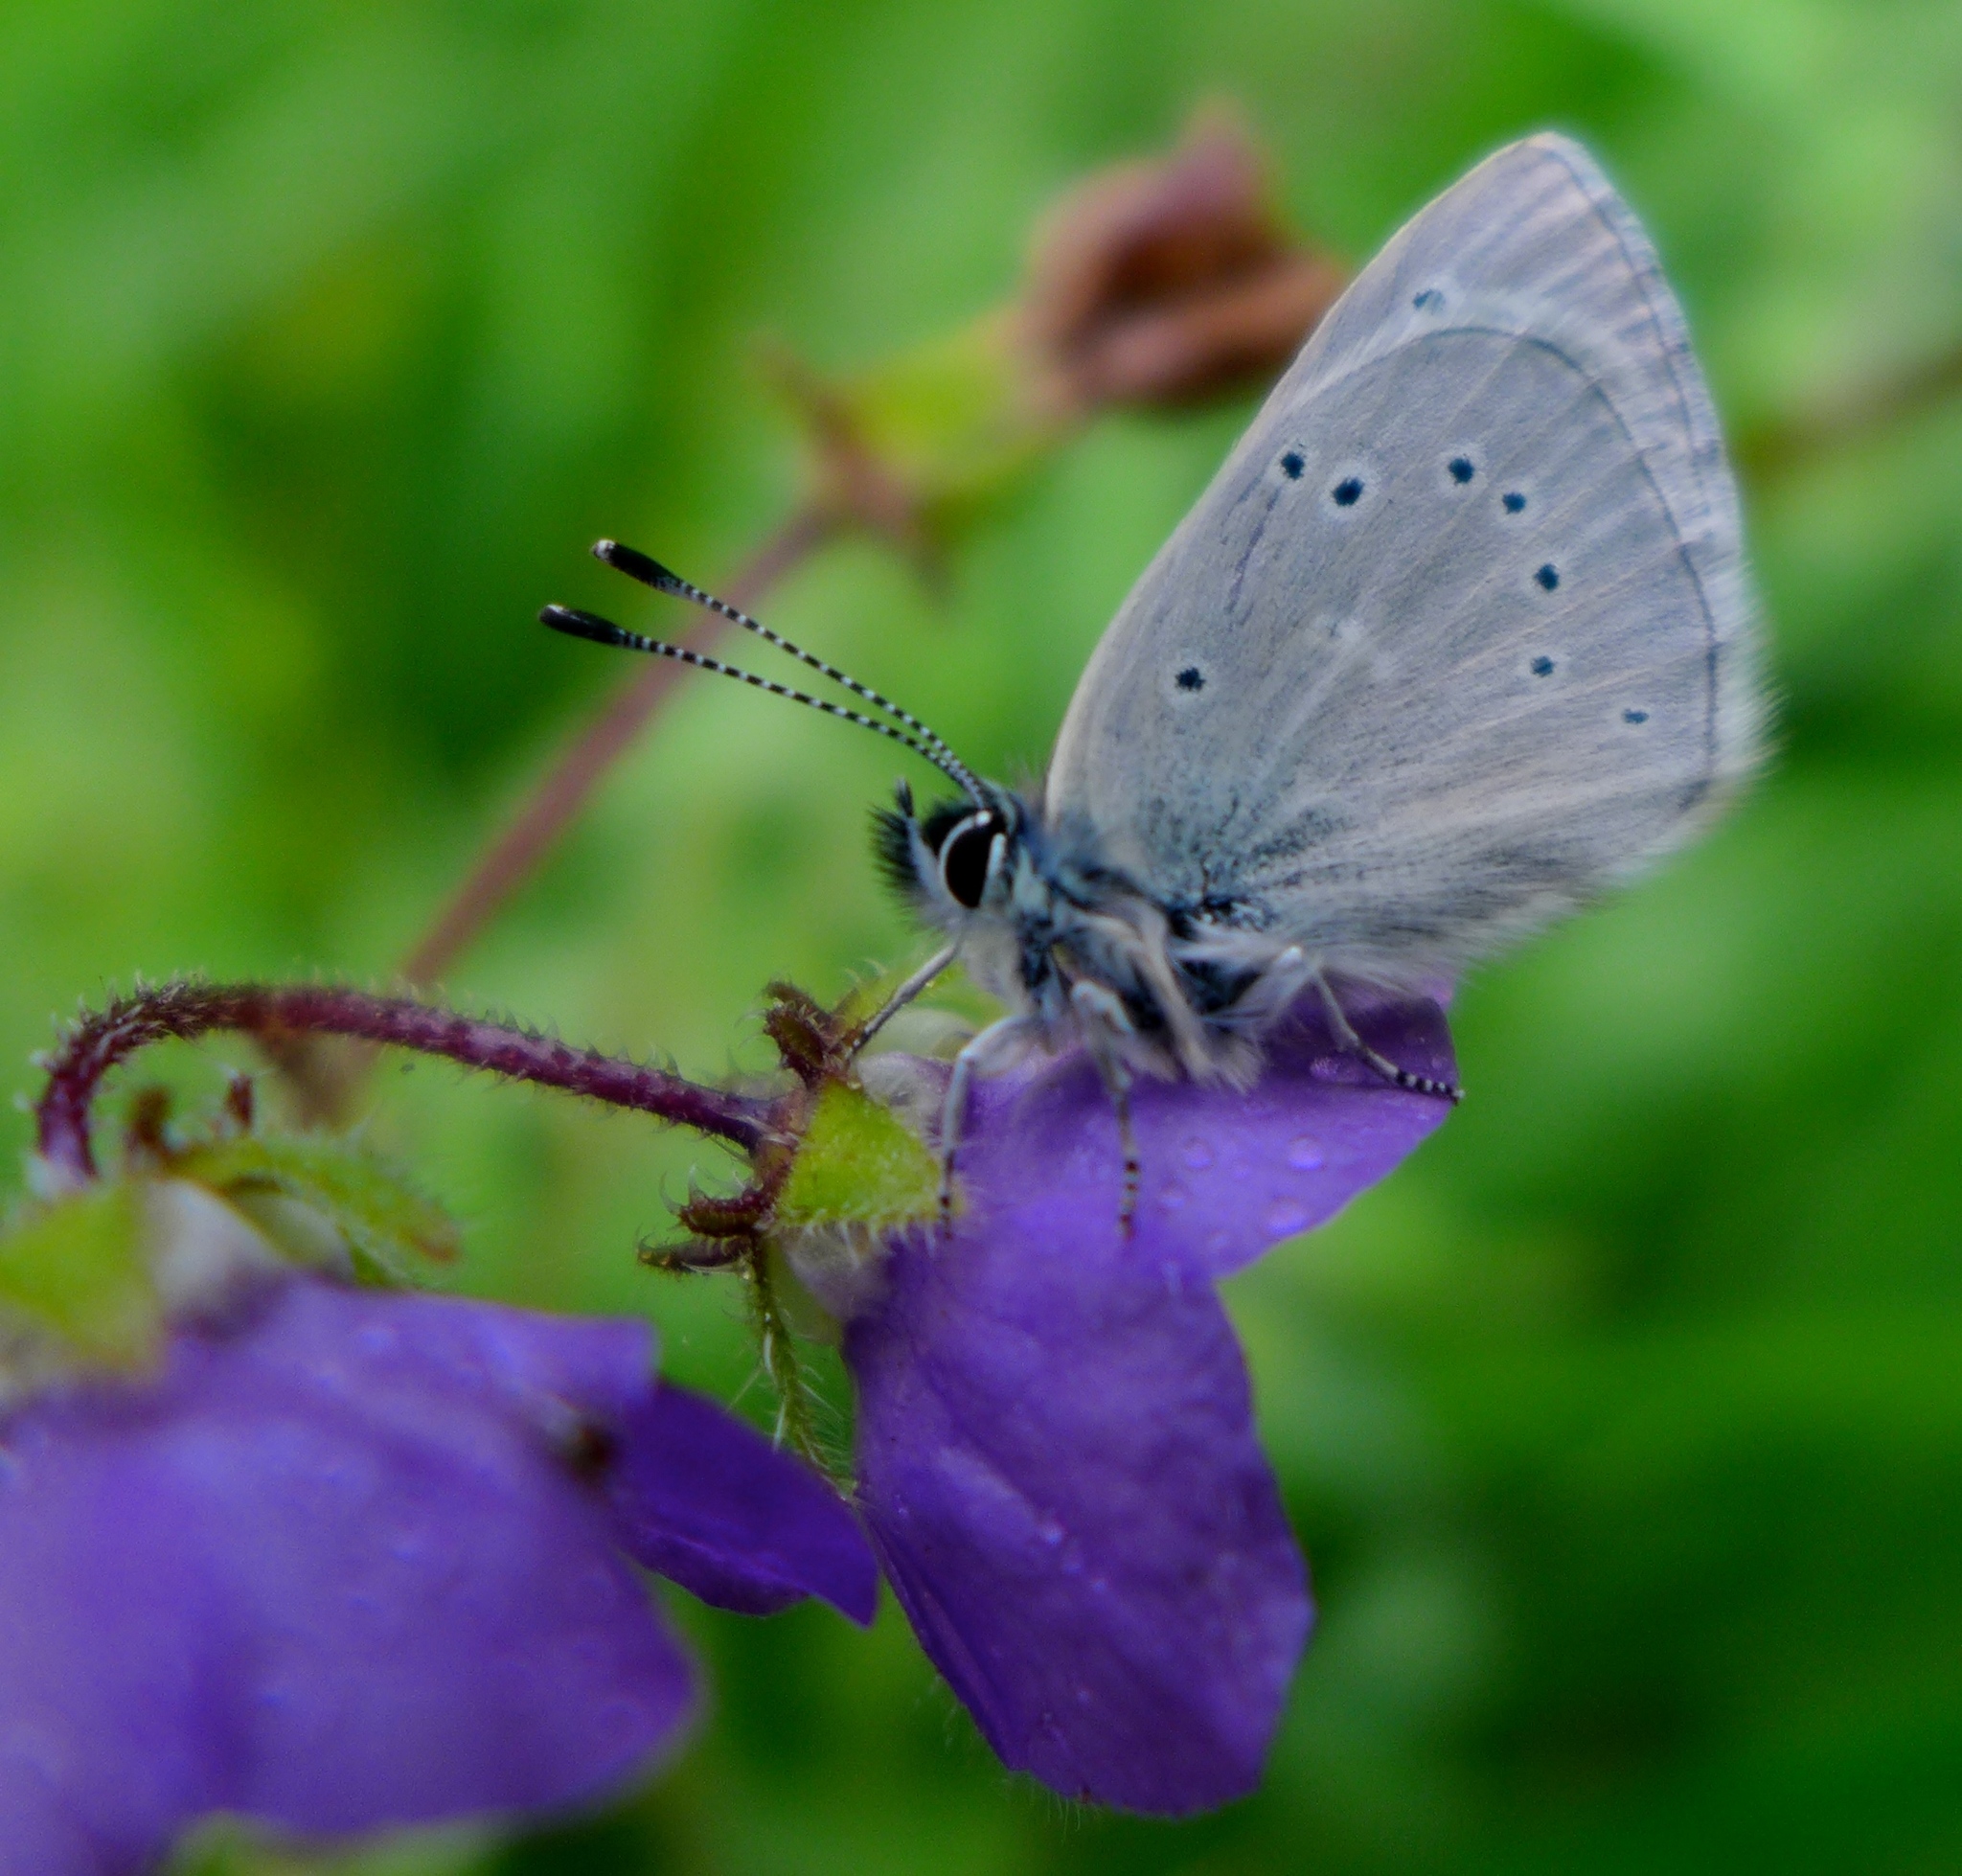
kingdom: Animalia
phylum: Arthropoda
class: Insecta
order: Lepidoptera
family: Lycaenidae
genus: Glaucopsyche
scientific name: Glaucopsyche lygdamus
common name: Silvery blue
